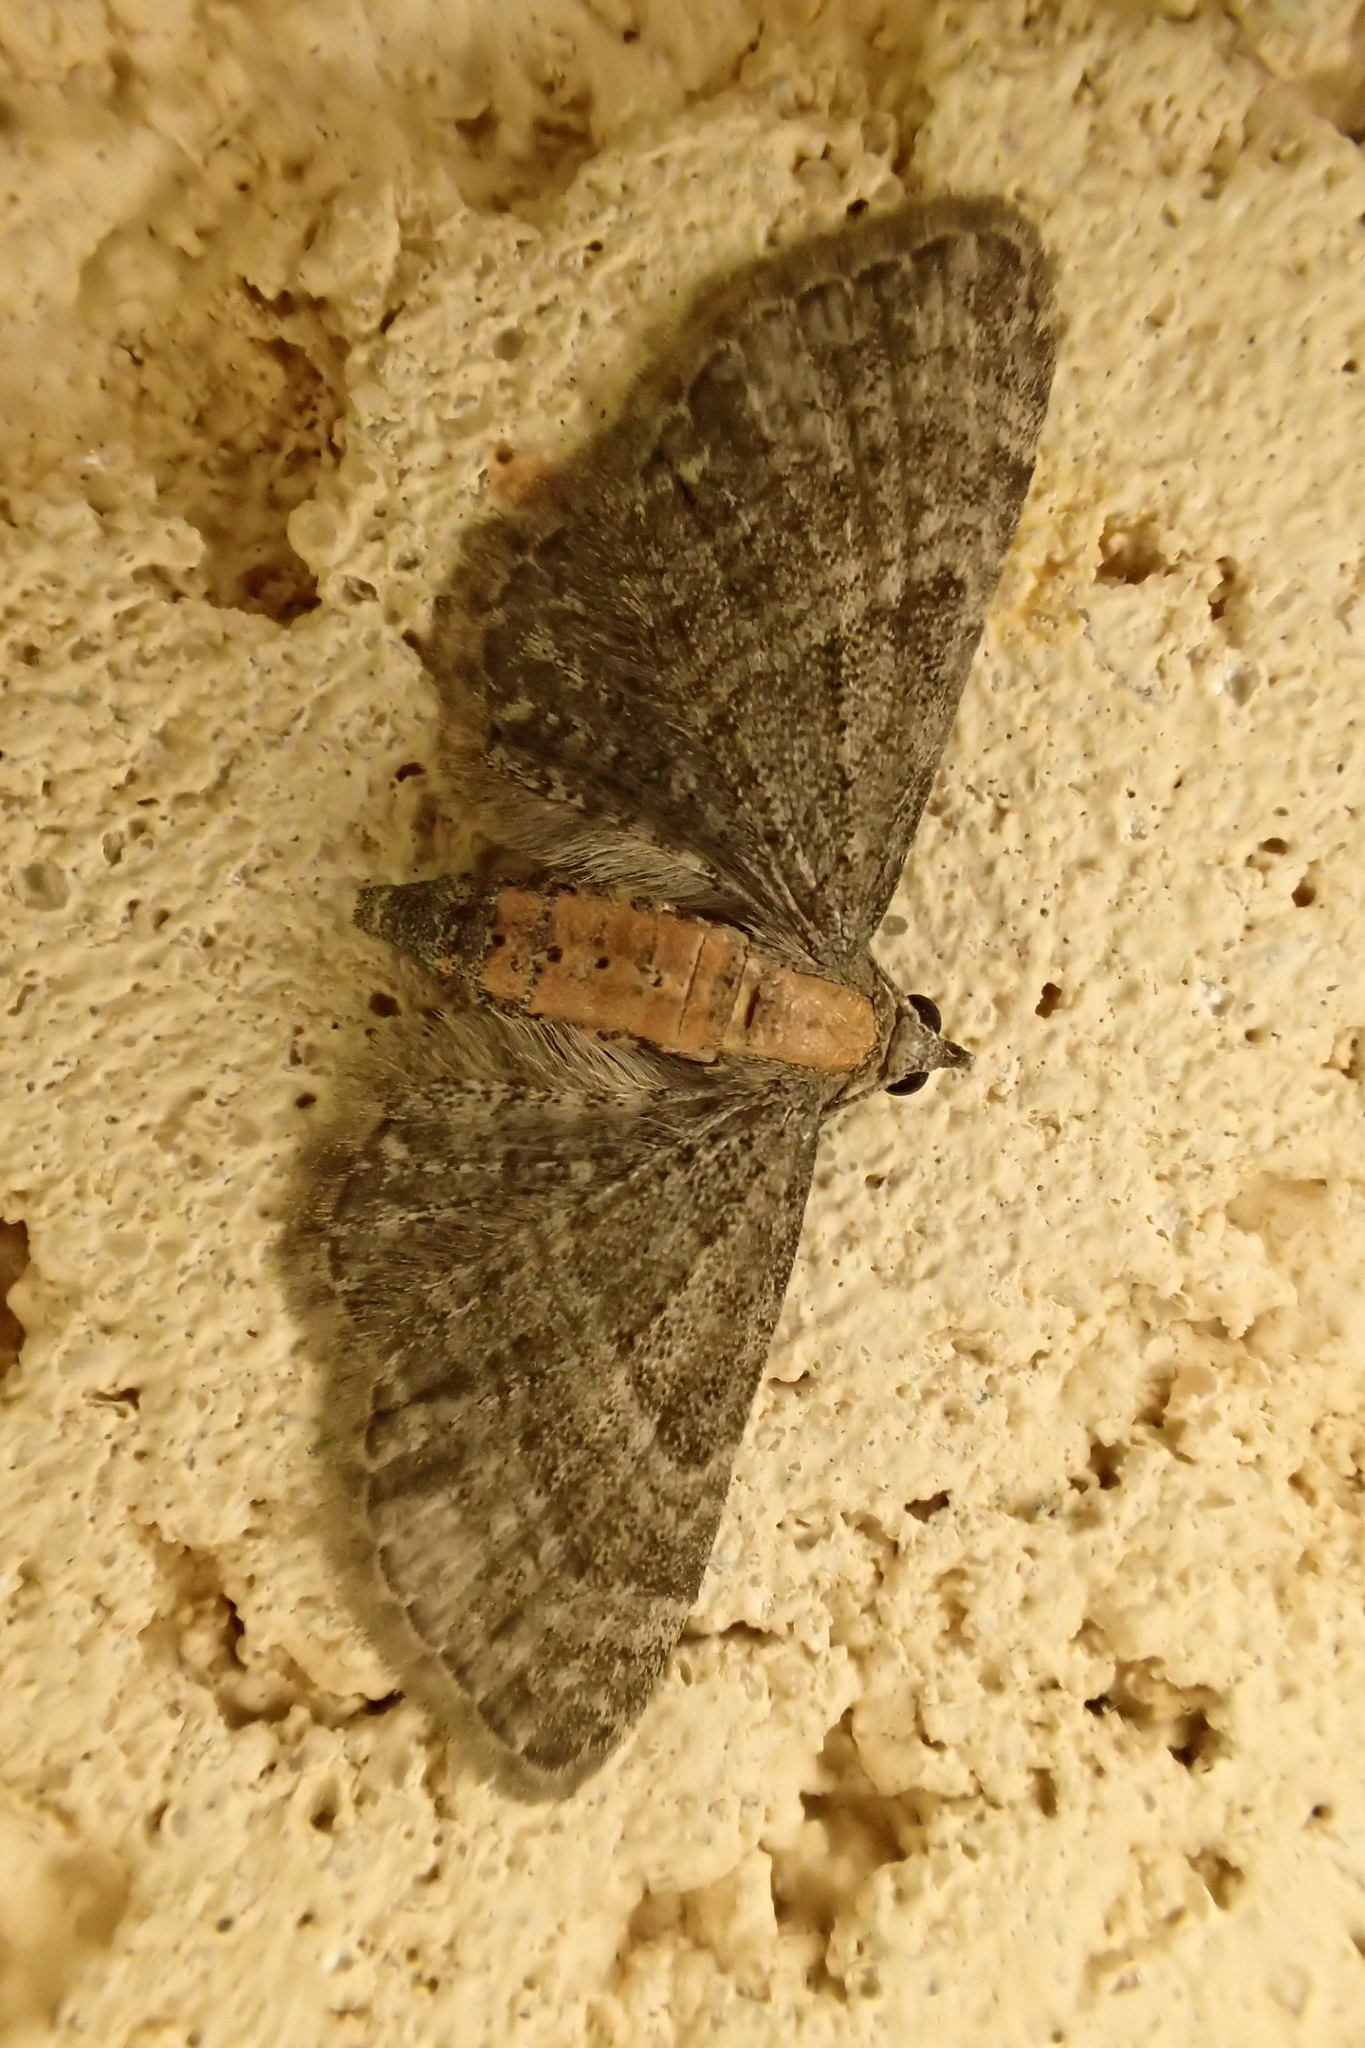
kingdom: Animalia
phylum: Arthropoda
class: Insecta
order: Lepidoptera
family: Geometridae
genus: Eupithecia
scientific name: Eupithecia haworthiata
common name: Haworth's pug
